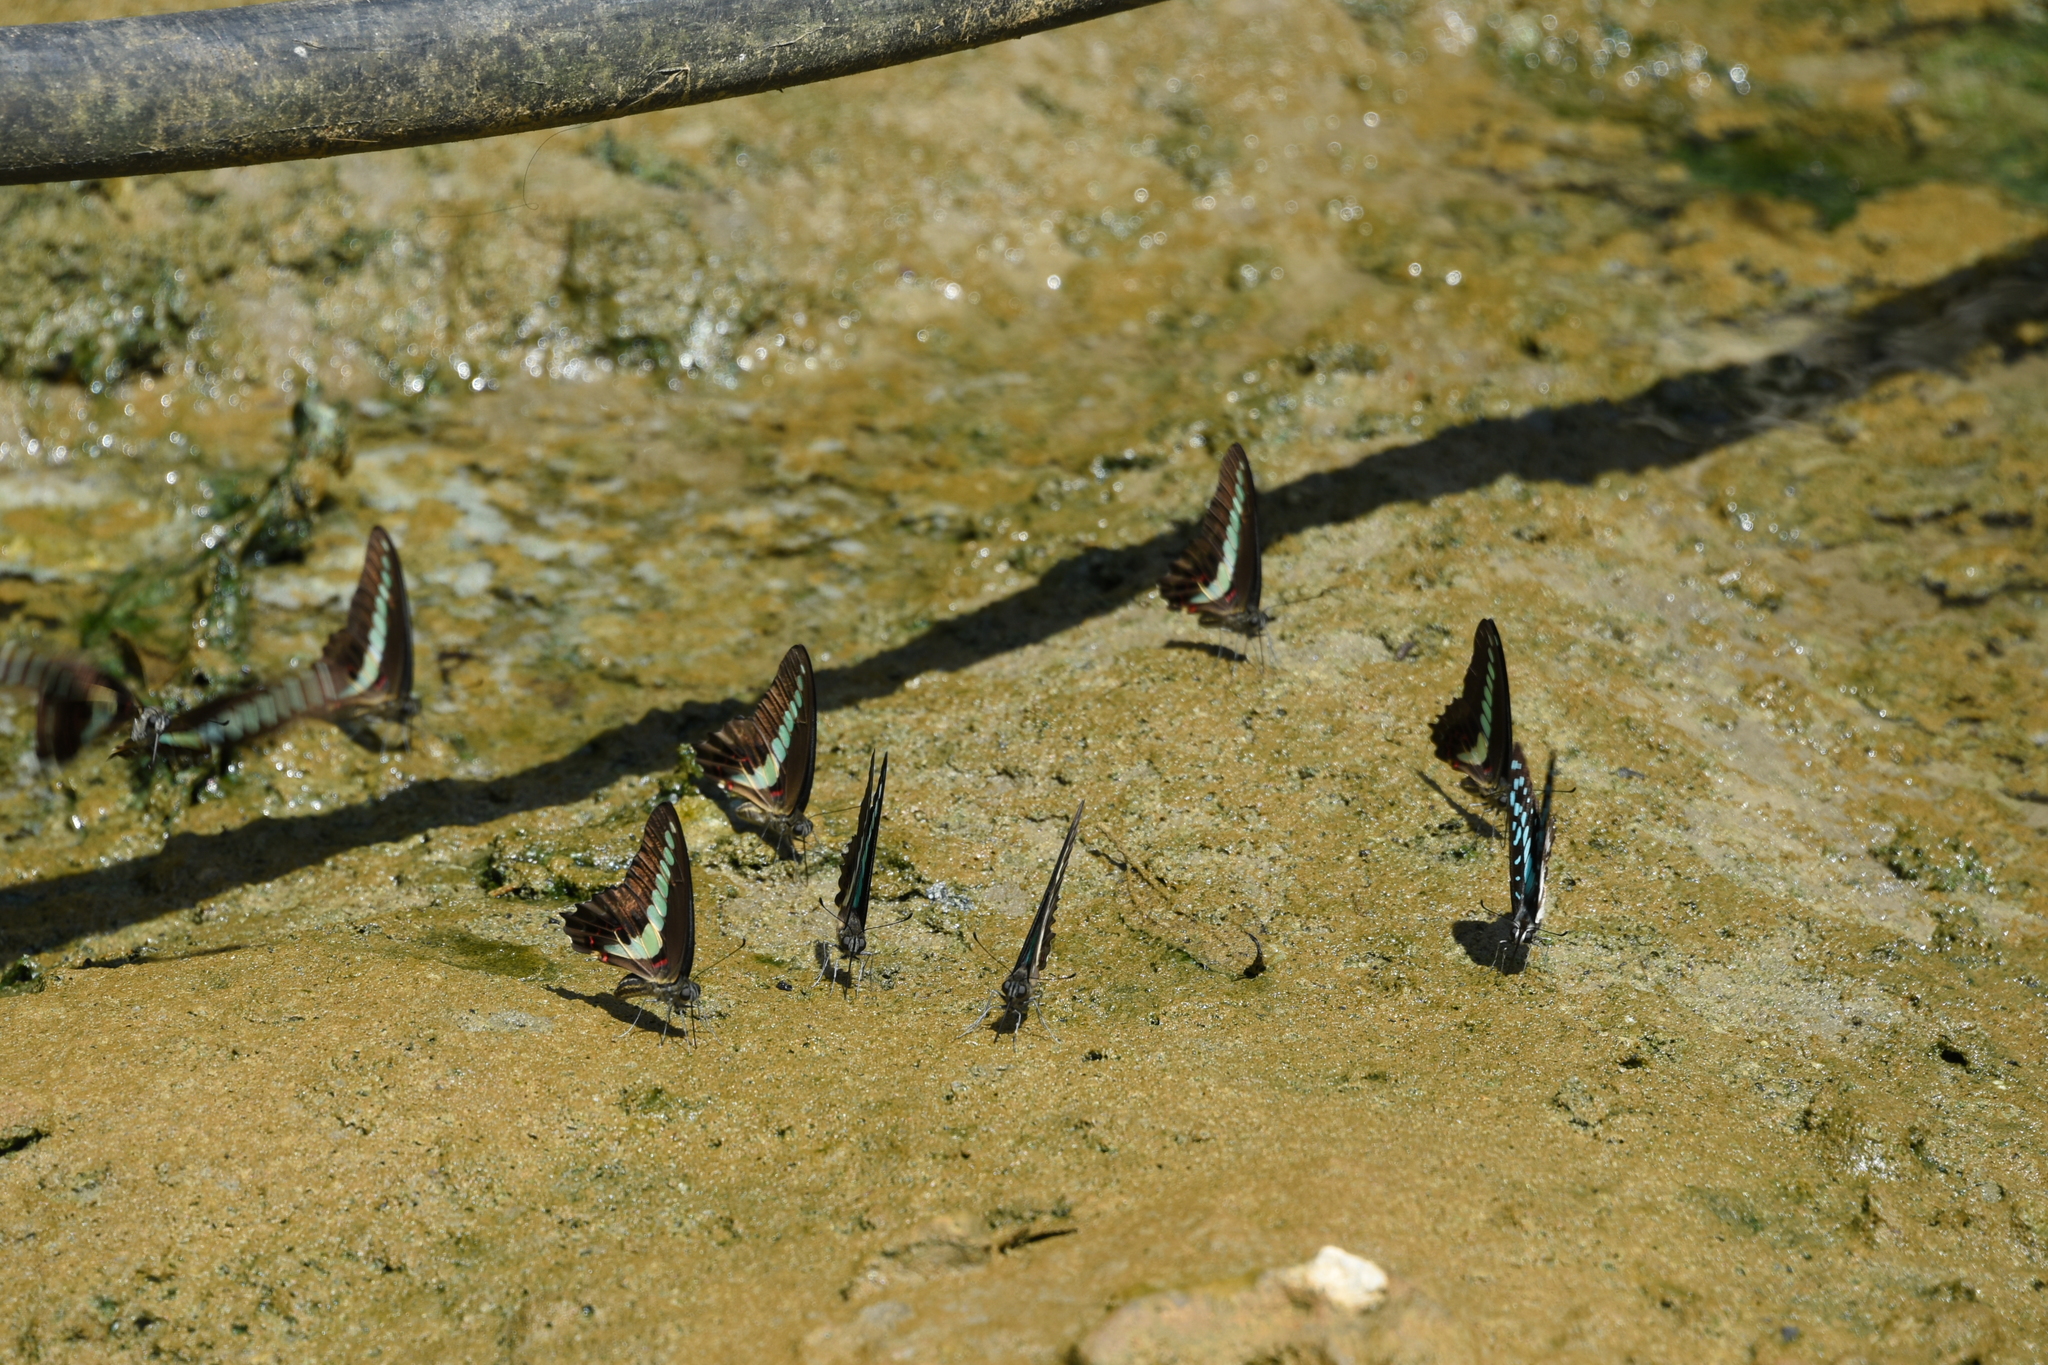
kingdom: Fungi
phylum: Ascomycota
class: Sordariomycetes
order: Microascales
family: Microascaceae
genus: Graphium
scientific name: Graphium sarpedon
